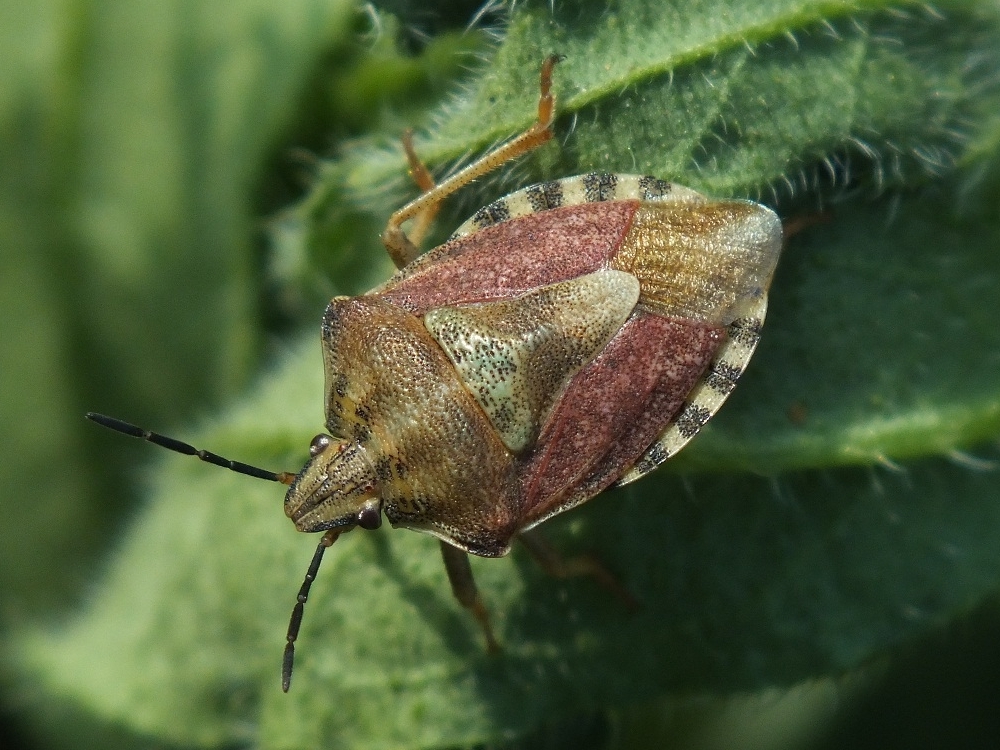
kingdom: Animalia
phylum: Arthropoda
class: Insecta
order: Hemiptera
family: Pentatomidae
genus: Carpocoris
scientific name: Carpocoris purpureipennis
